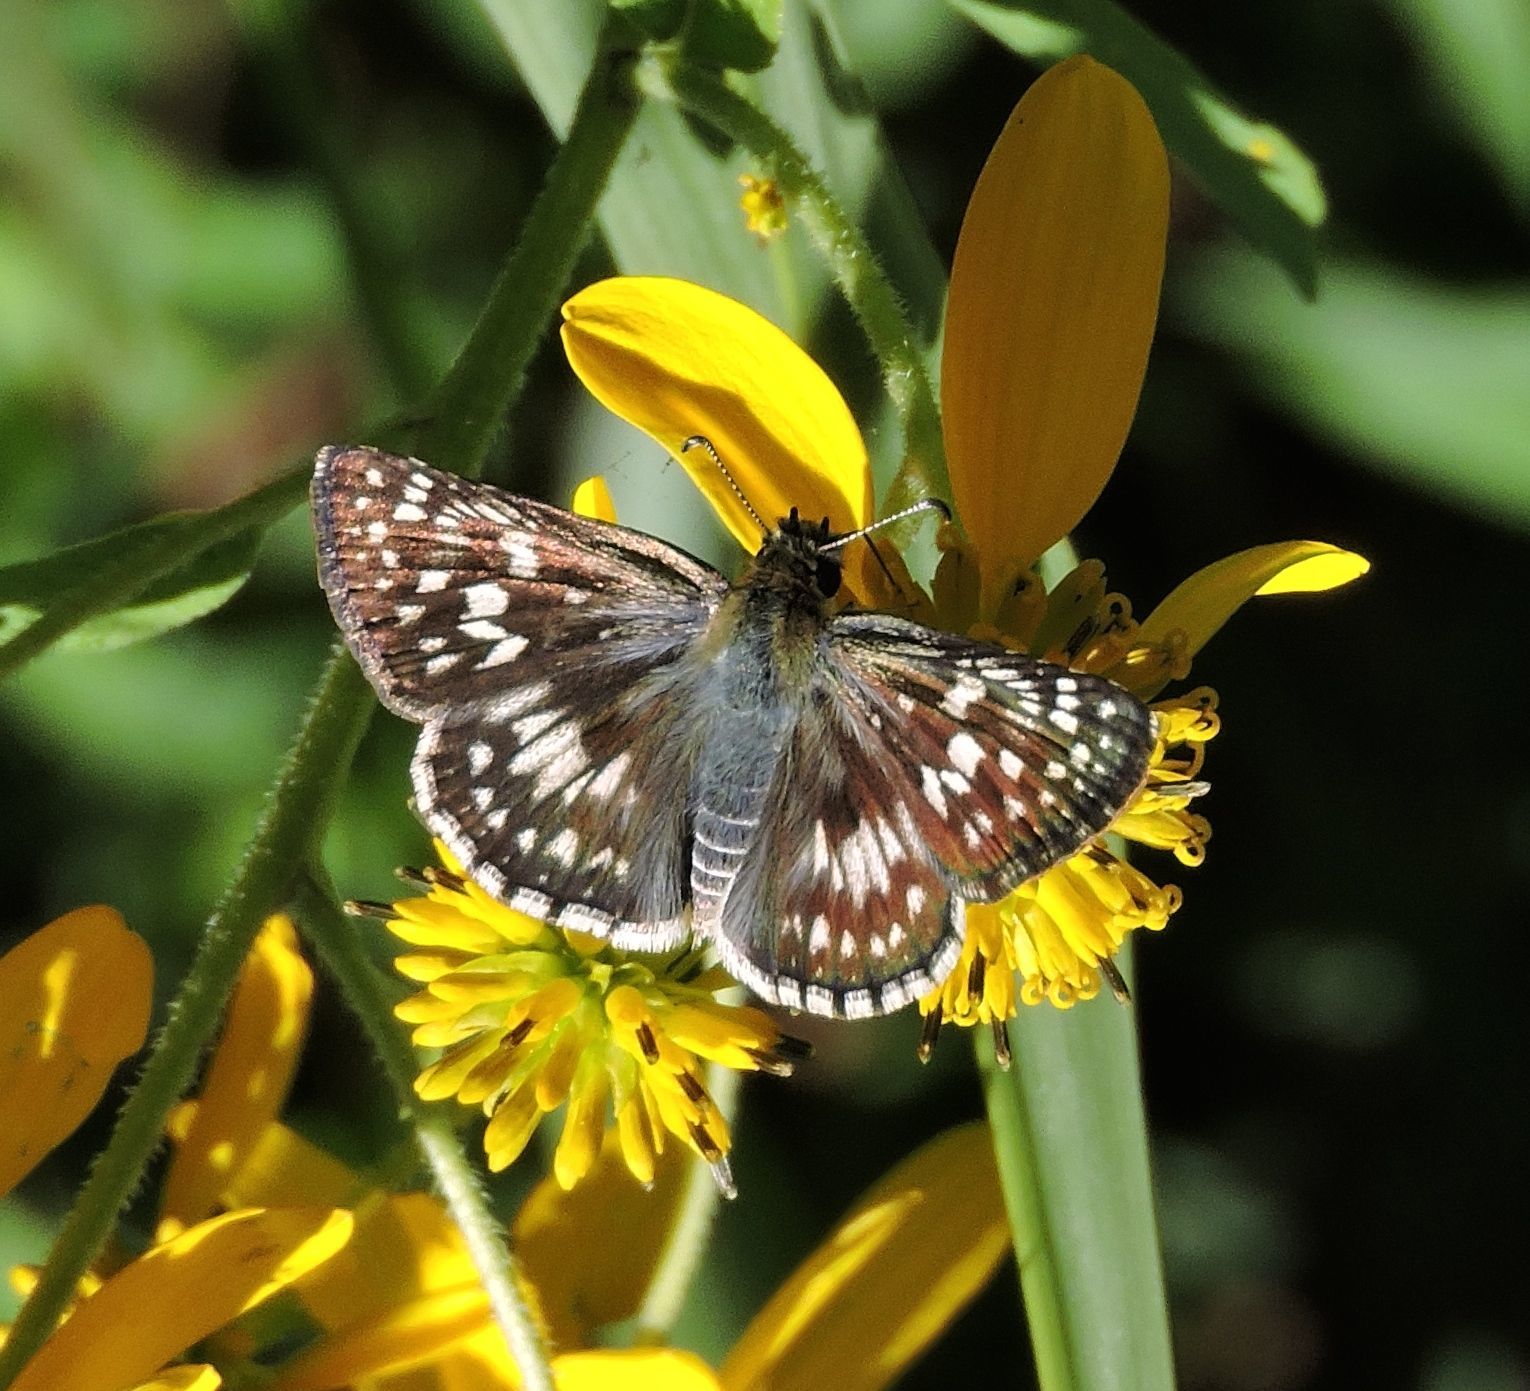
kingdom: Animalia
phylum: Arthropoda
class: Insecta
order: Lepidoptera
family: Hesperiidae
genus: Burnsius
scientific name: Burnsius communis
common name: Common checkered-skipper
